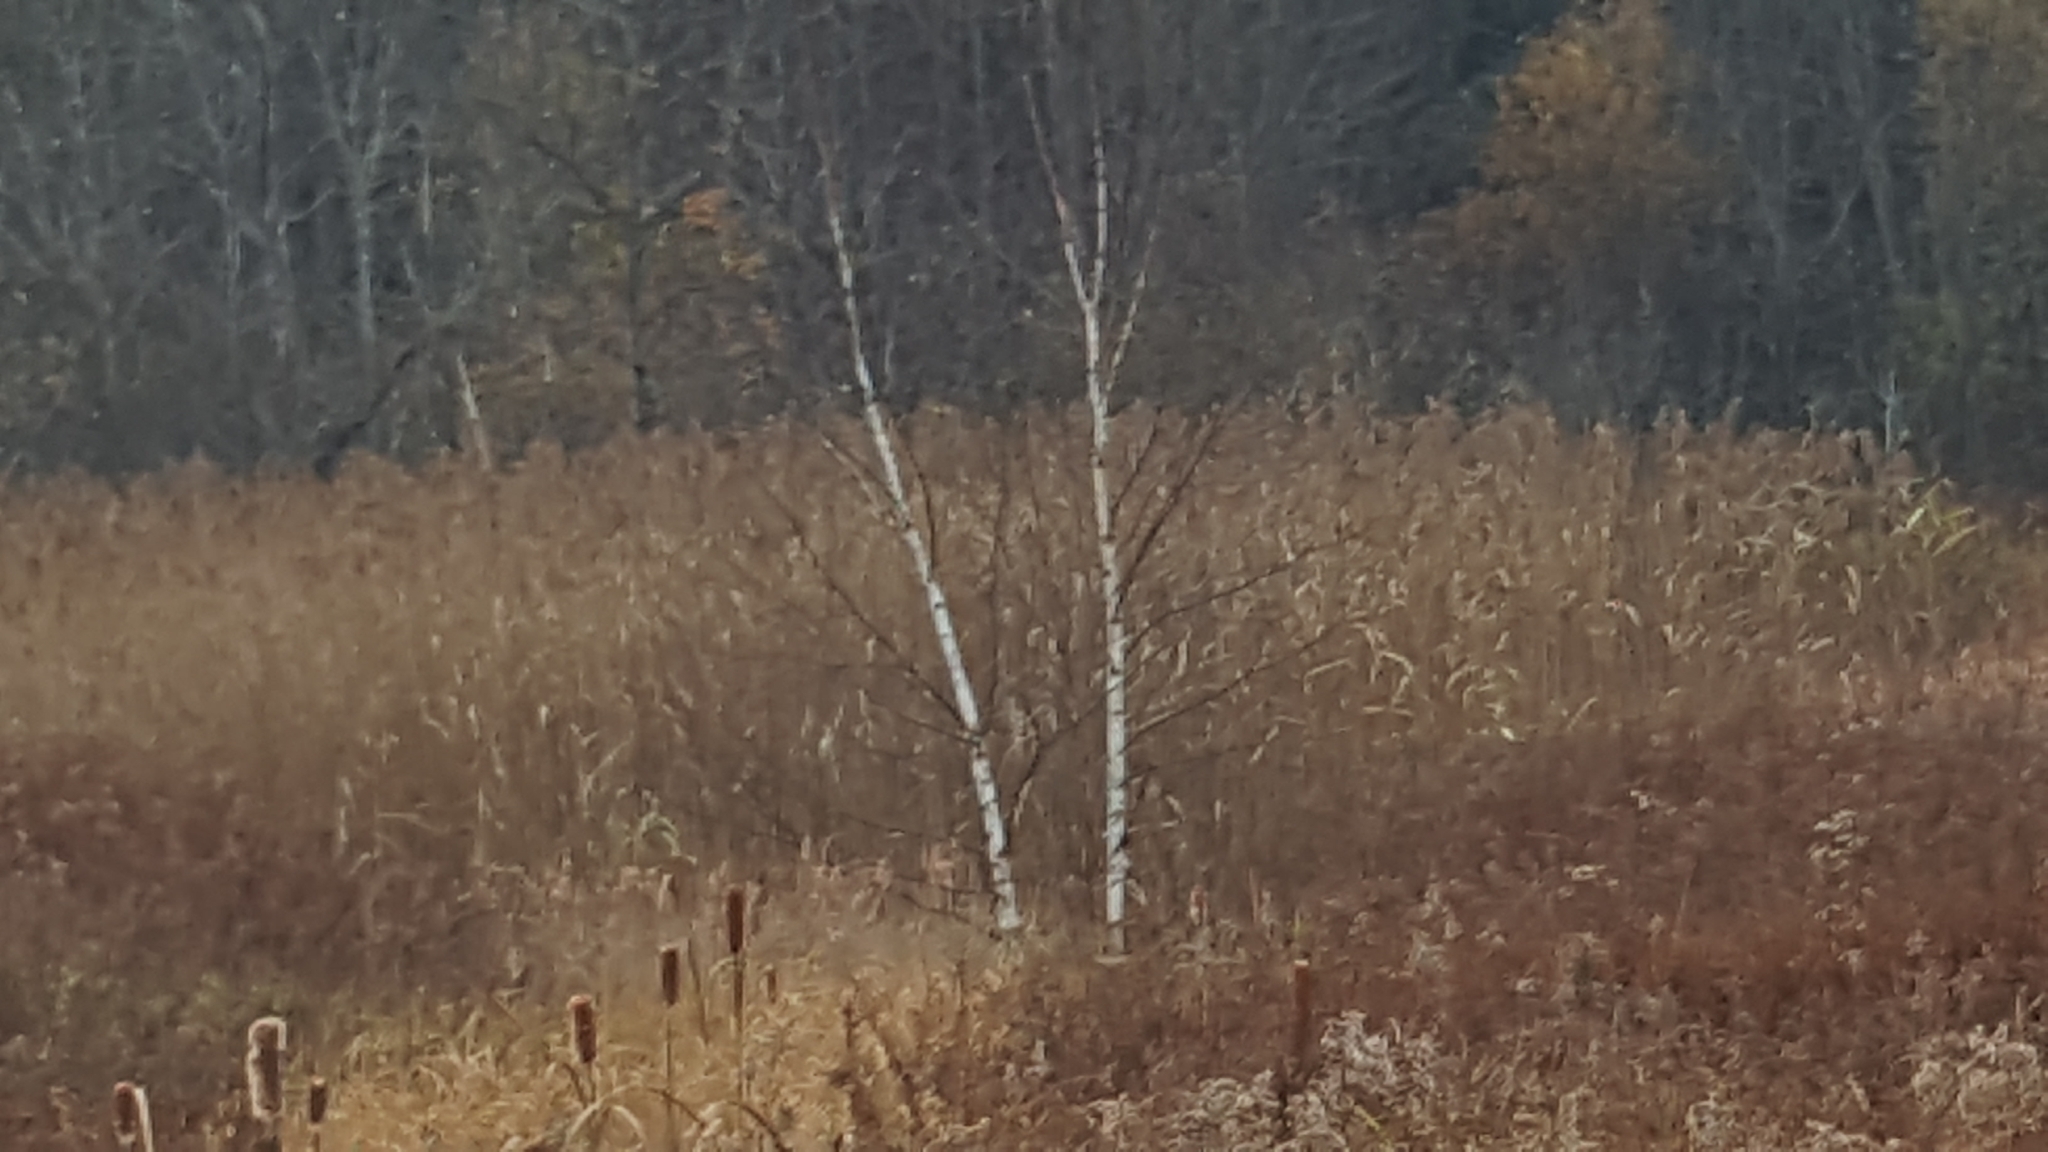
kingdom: Plantae
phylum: Tracheophyta
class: Liliopsida
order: Poales
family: Poaceae
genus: Phragmites
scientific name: Phragmites australis
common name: Common reed
